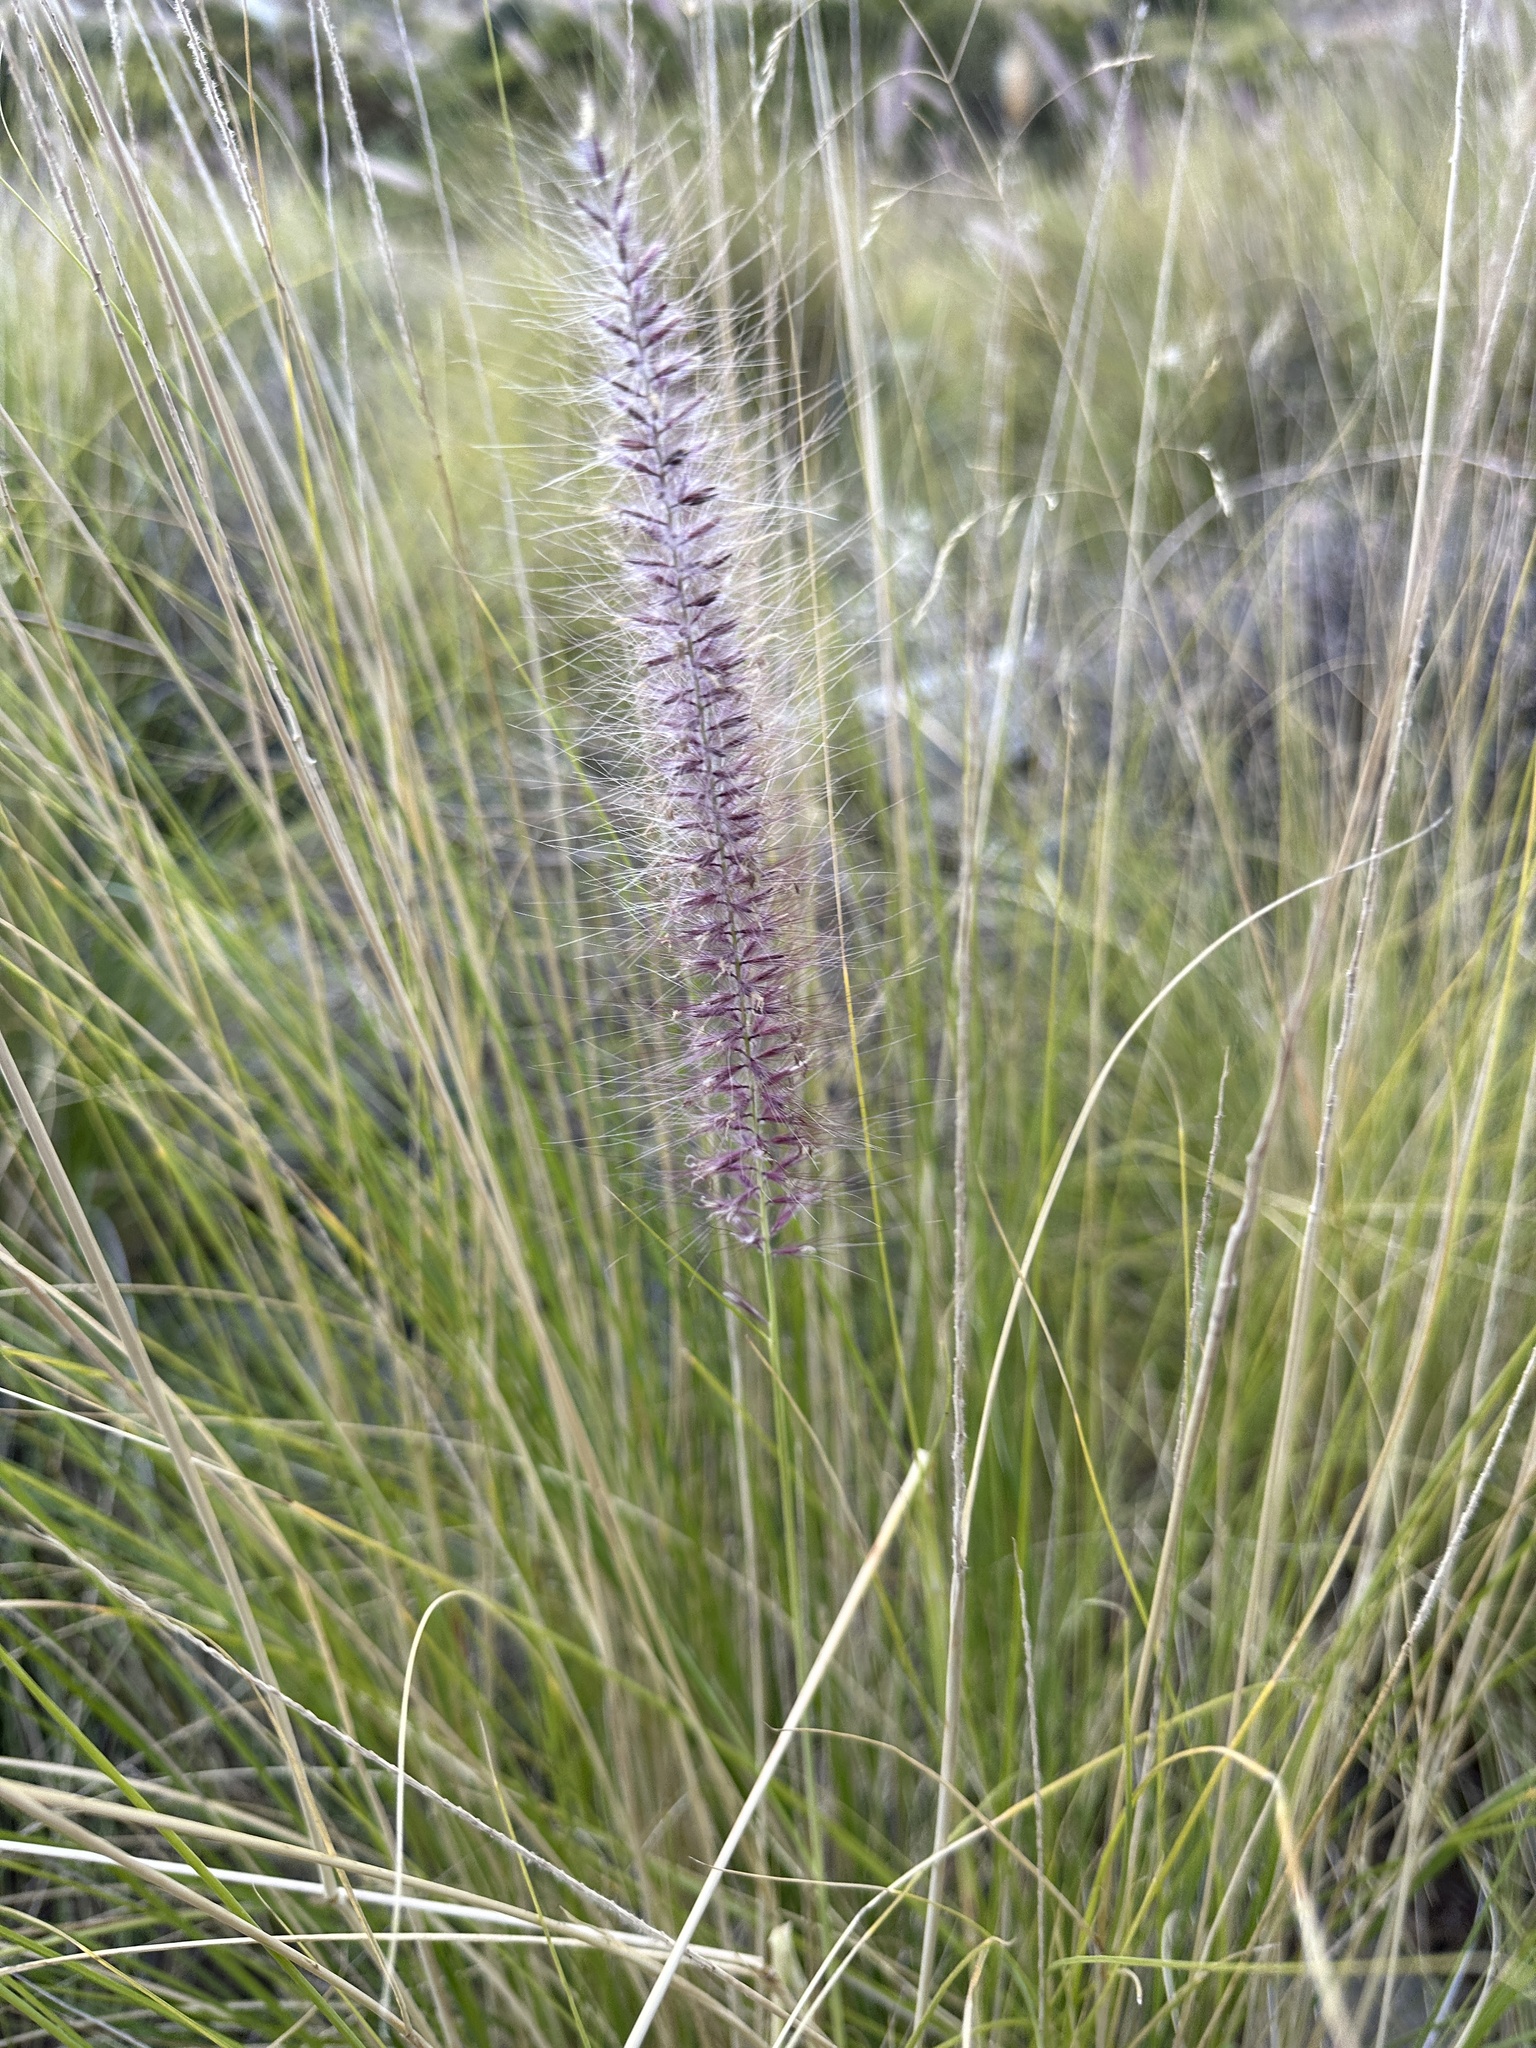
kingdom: Plantae
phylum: Tracheophyta
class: Liliopsida
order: Poales
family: Poaceae
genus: Cenchrus
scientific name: Cenchrus setaceus
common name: Crimson fountaingrass
